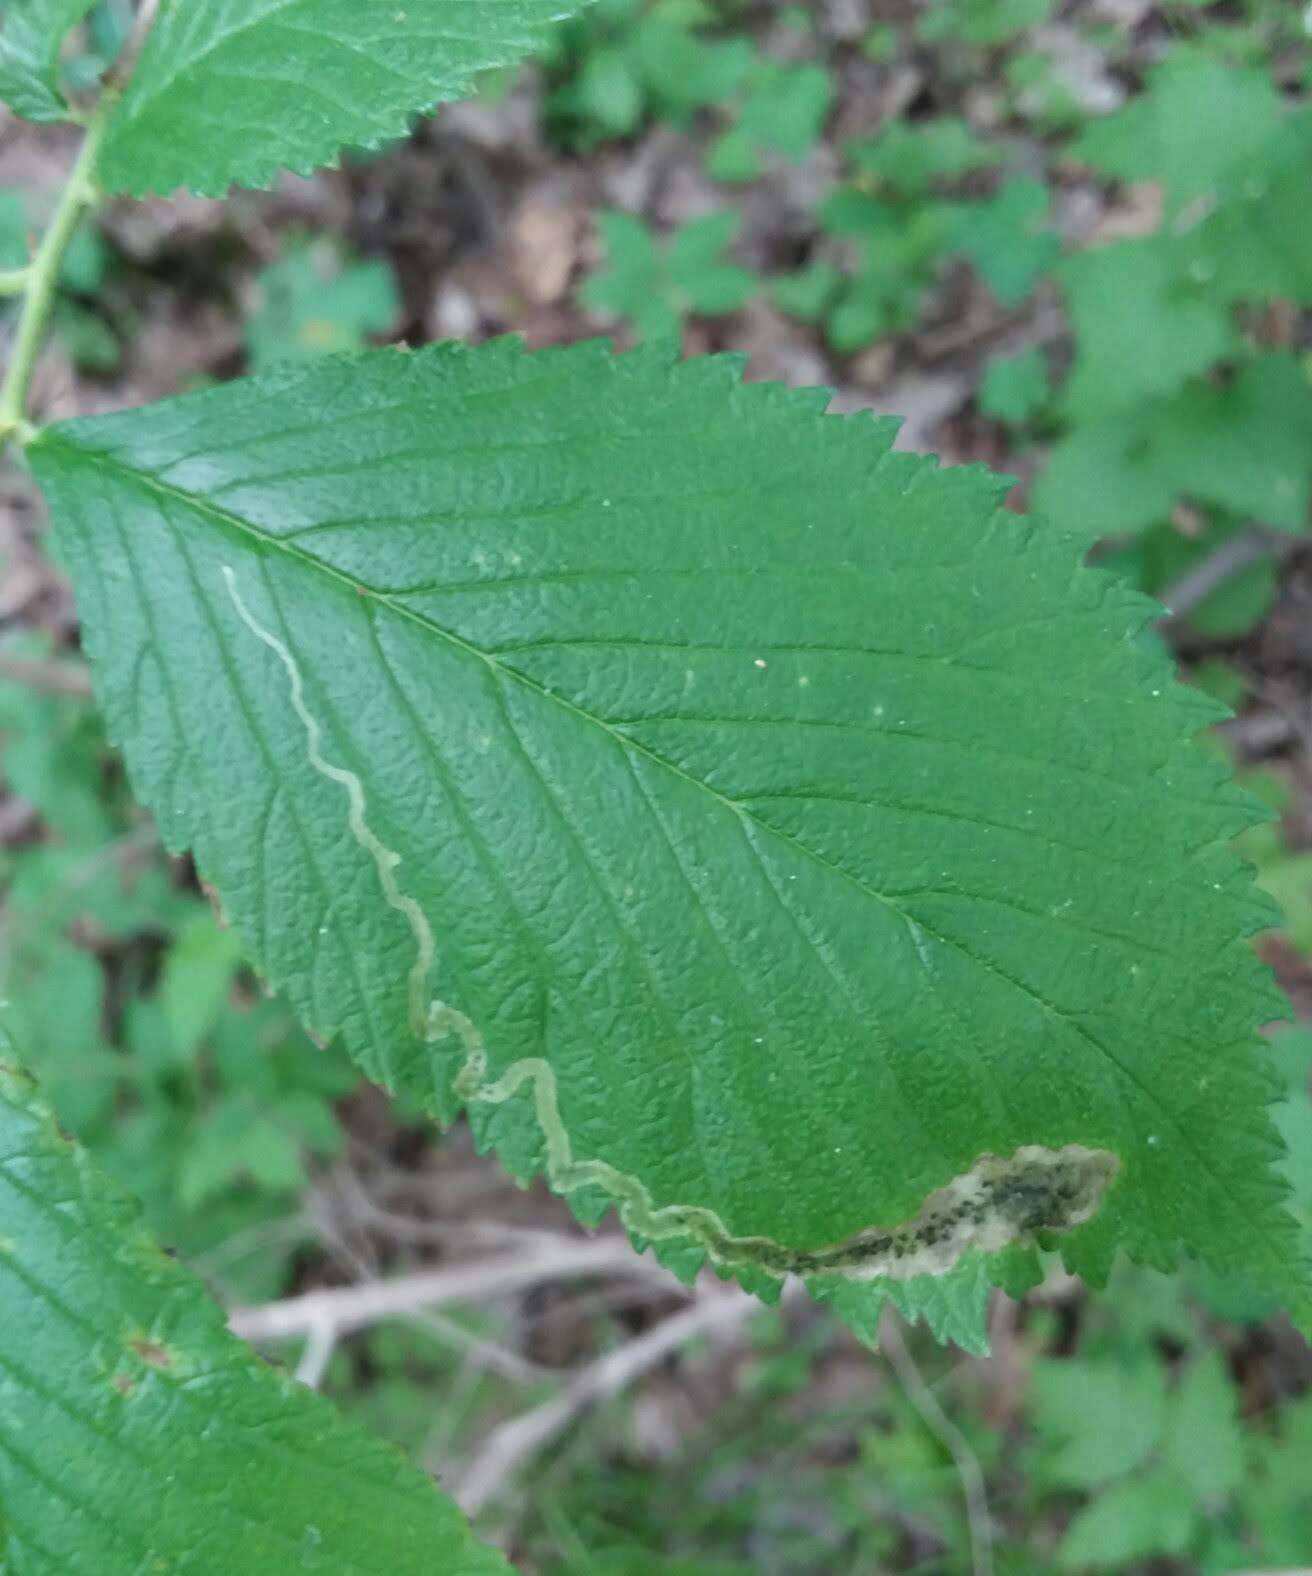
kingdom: Animalia
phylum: Arthropoda
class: Insecta
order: Diptera
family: Agromyzidae
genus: Agromyza
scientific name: Agromyza aristata
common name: Elm agromyzid leafminer
